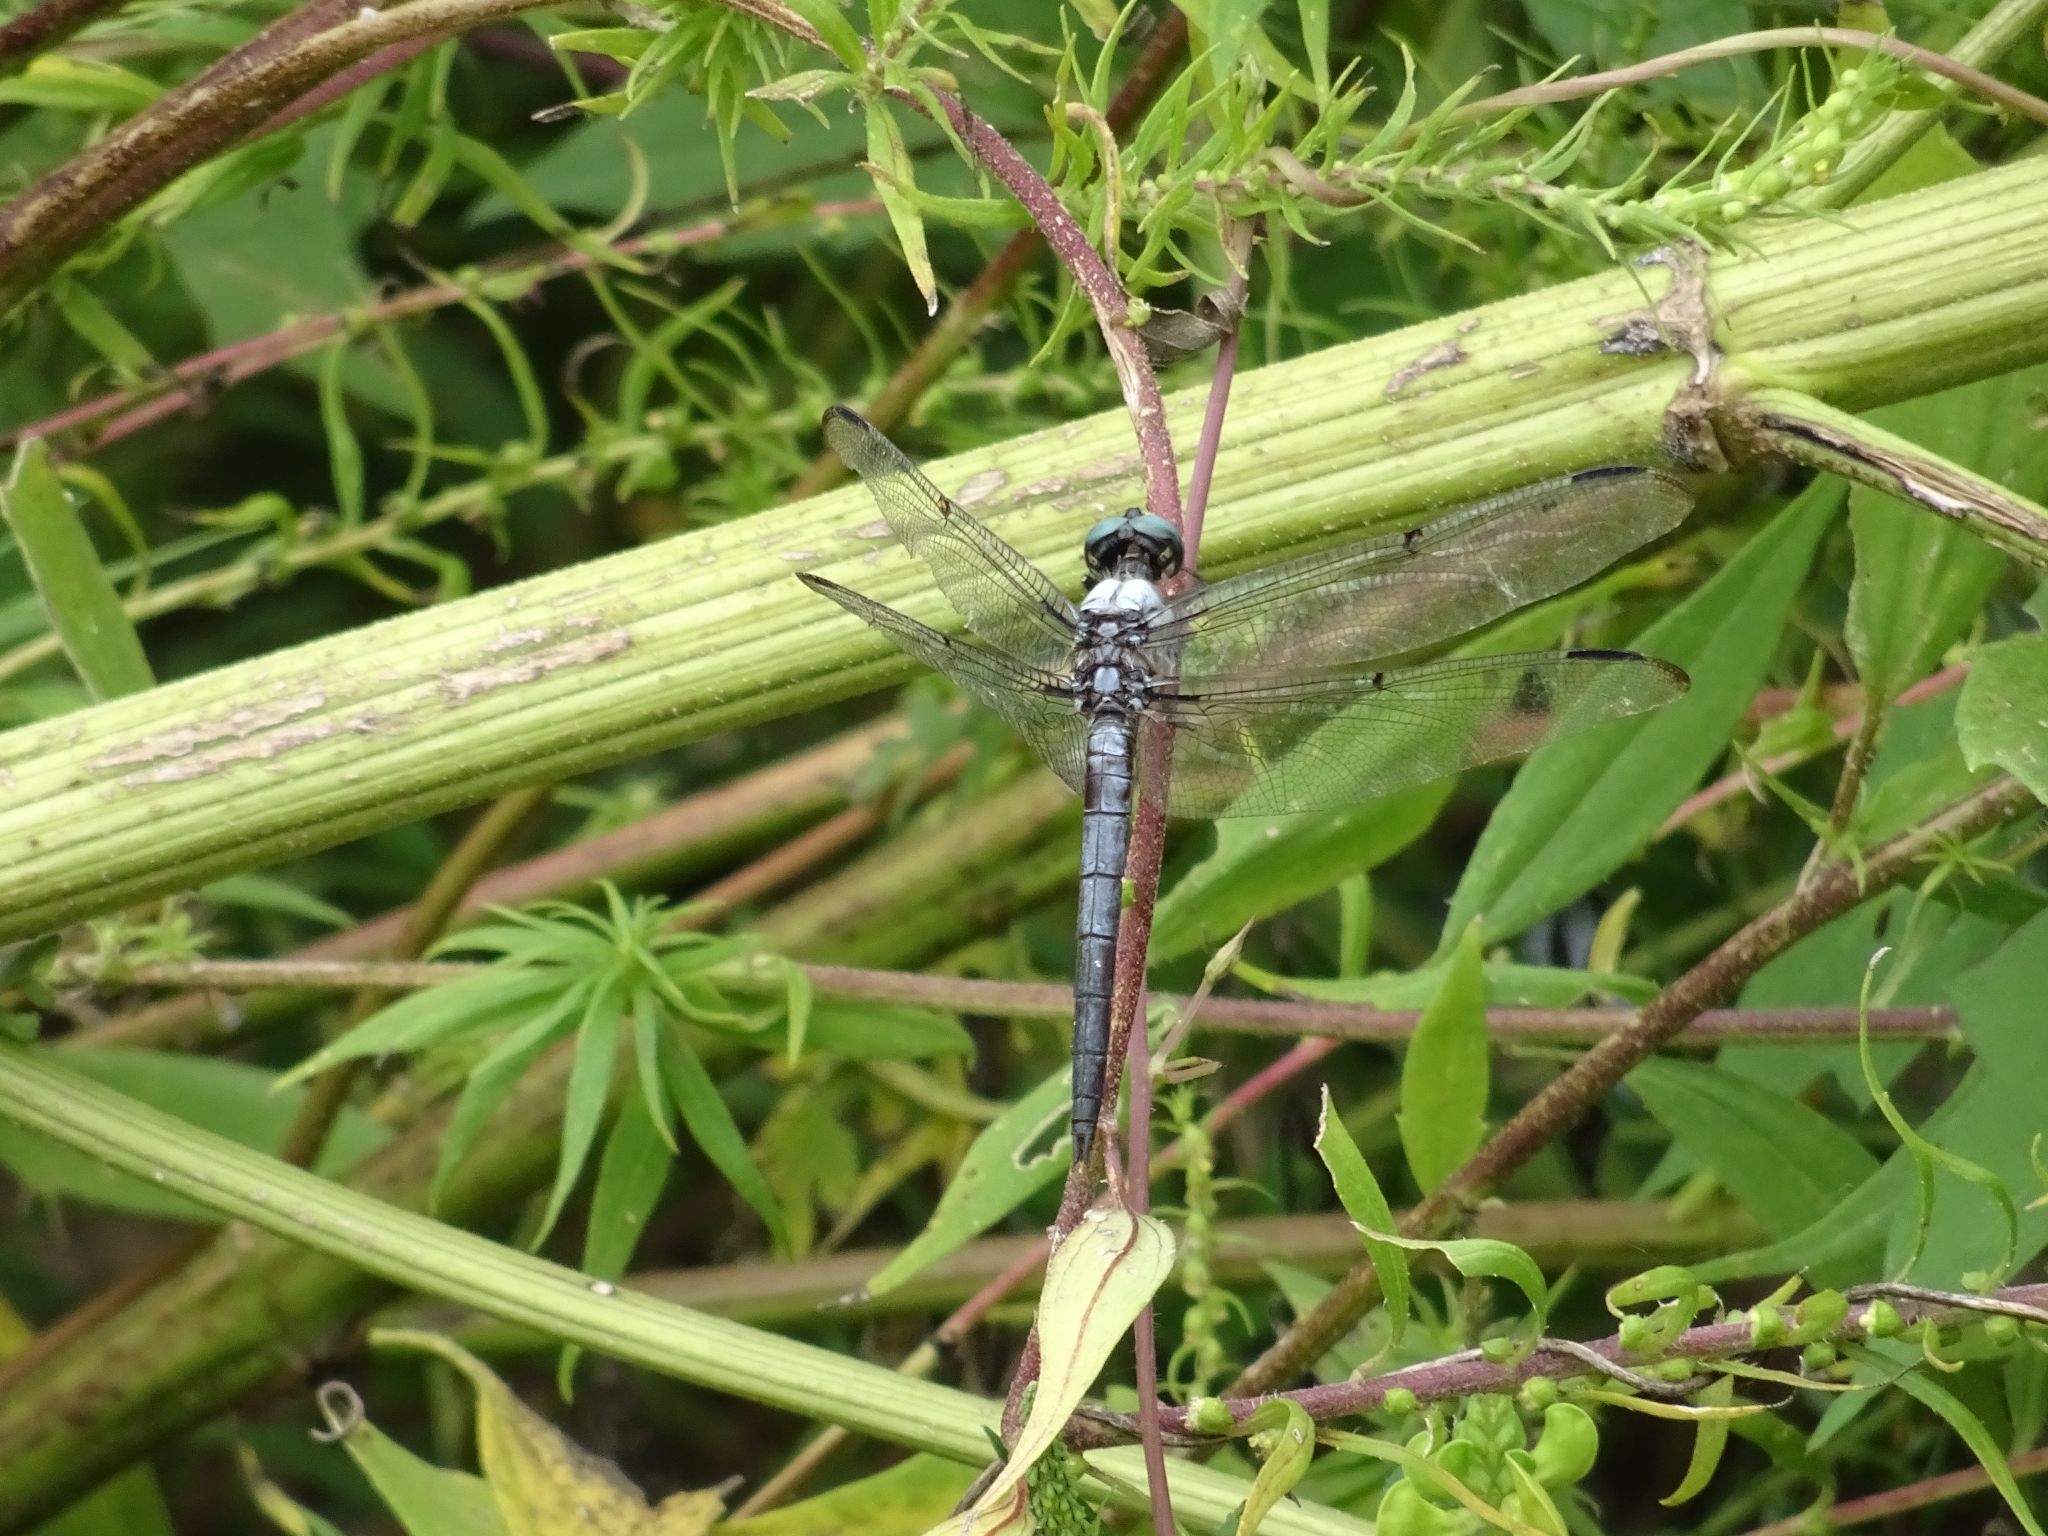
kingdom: Animalia
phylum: Arthropoda
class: Insecta
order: Odonata
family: Libellulidae
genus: Libellula
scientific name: Libellula vibrans
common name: Great blue skimmer
